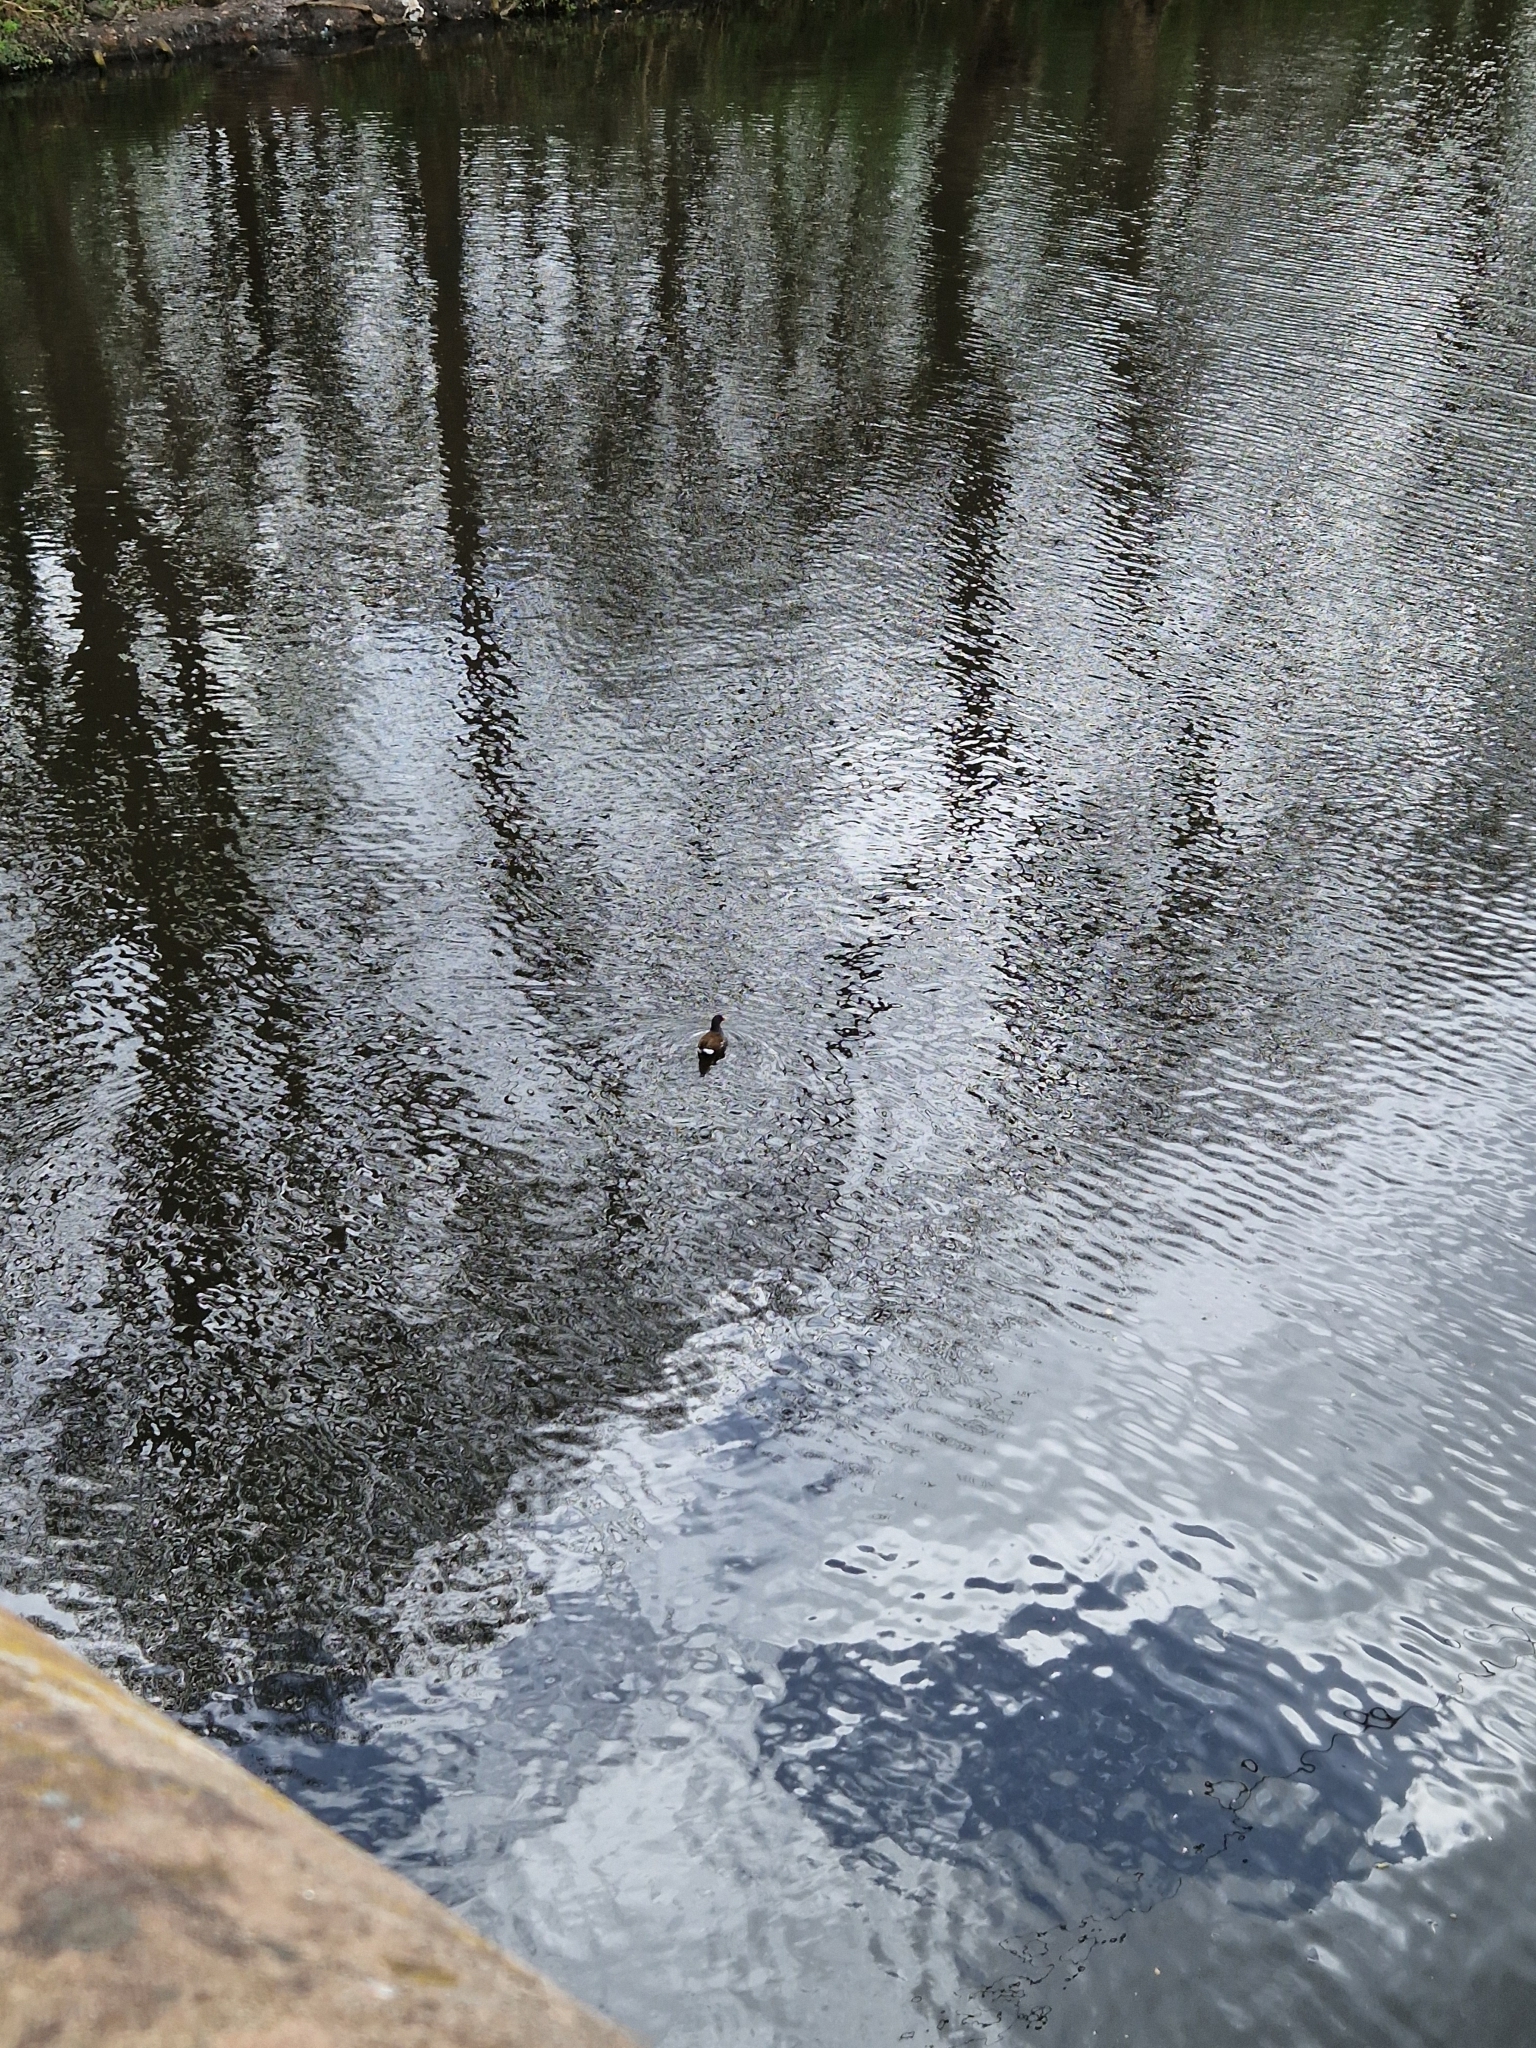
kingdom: Animalia
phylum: Chordata
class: Aves
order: Gruiformes
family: Rallidae
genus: Gallinula
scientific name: Gallinula chloropus
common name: Common moorhen
